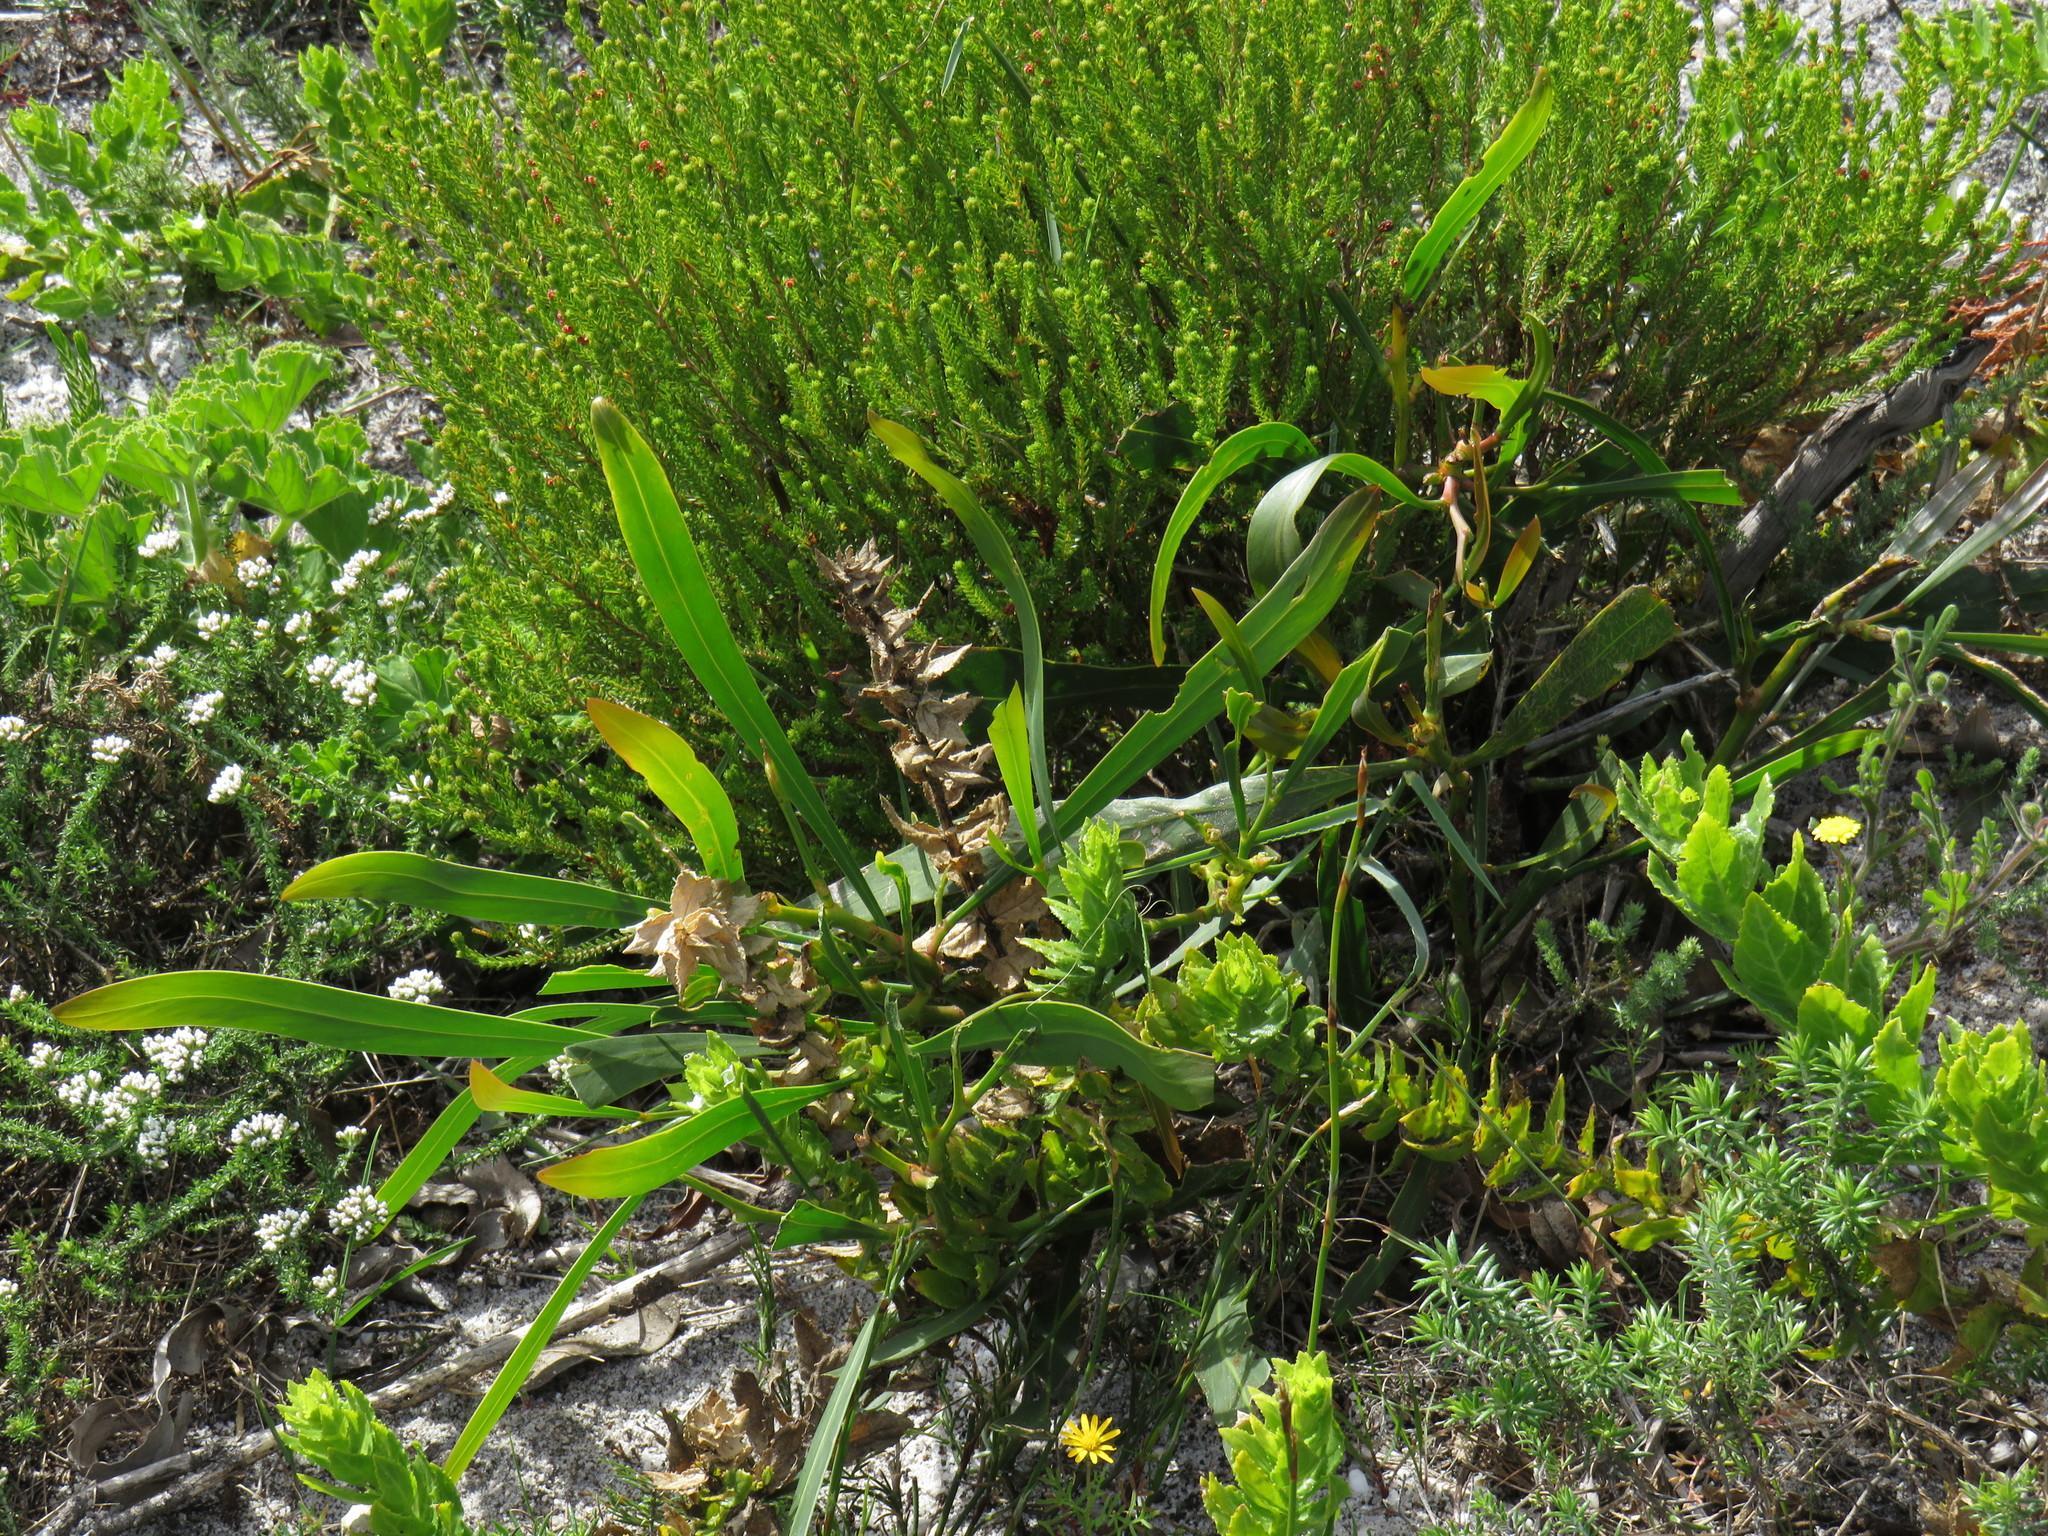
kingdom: Plantae
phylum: Tracheophyta
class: Magnoliopsida
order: Fabales
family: Fabaceae
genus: Acacia
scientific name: Acacia saligna
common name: Orange wattle
